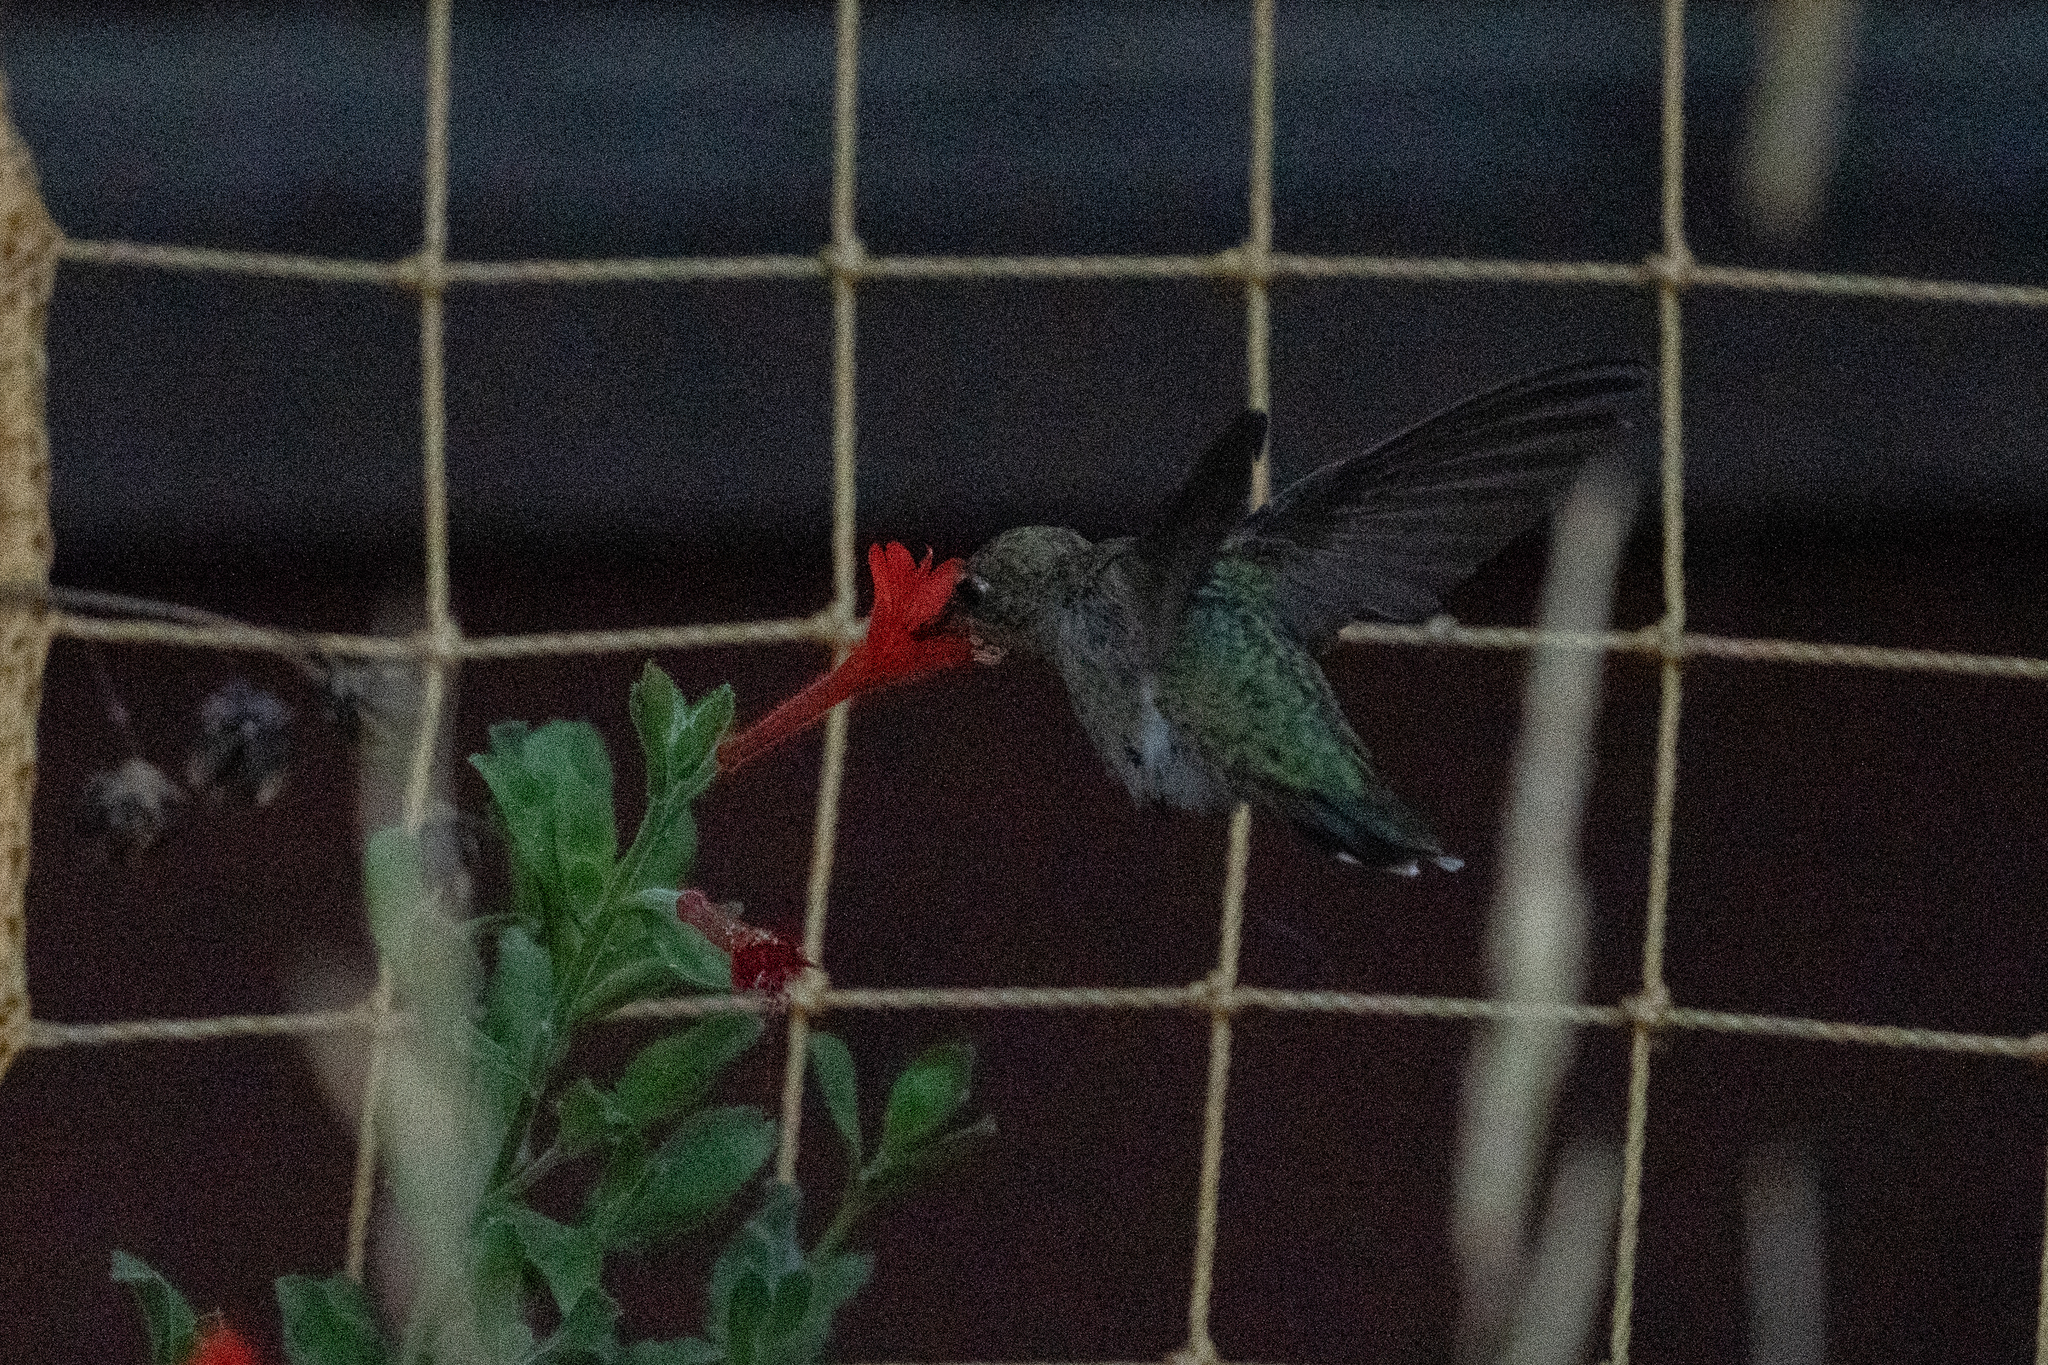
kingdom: Animalia
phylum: Chordata
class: Aves
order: Apodiformes
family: Trochilidae
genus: Calypte
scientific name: Calypte anna
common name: Anna's hummingbird
